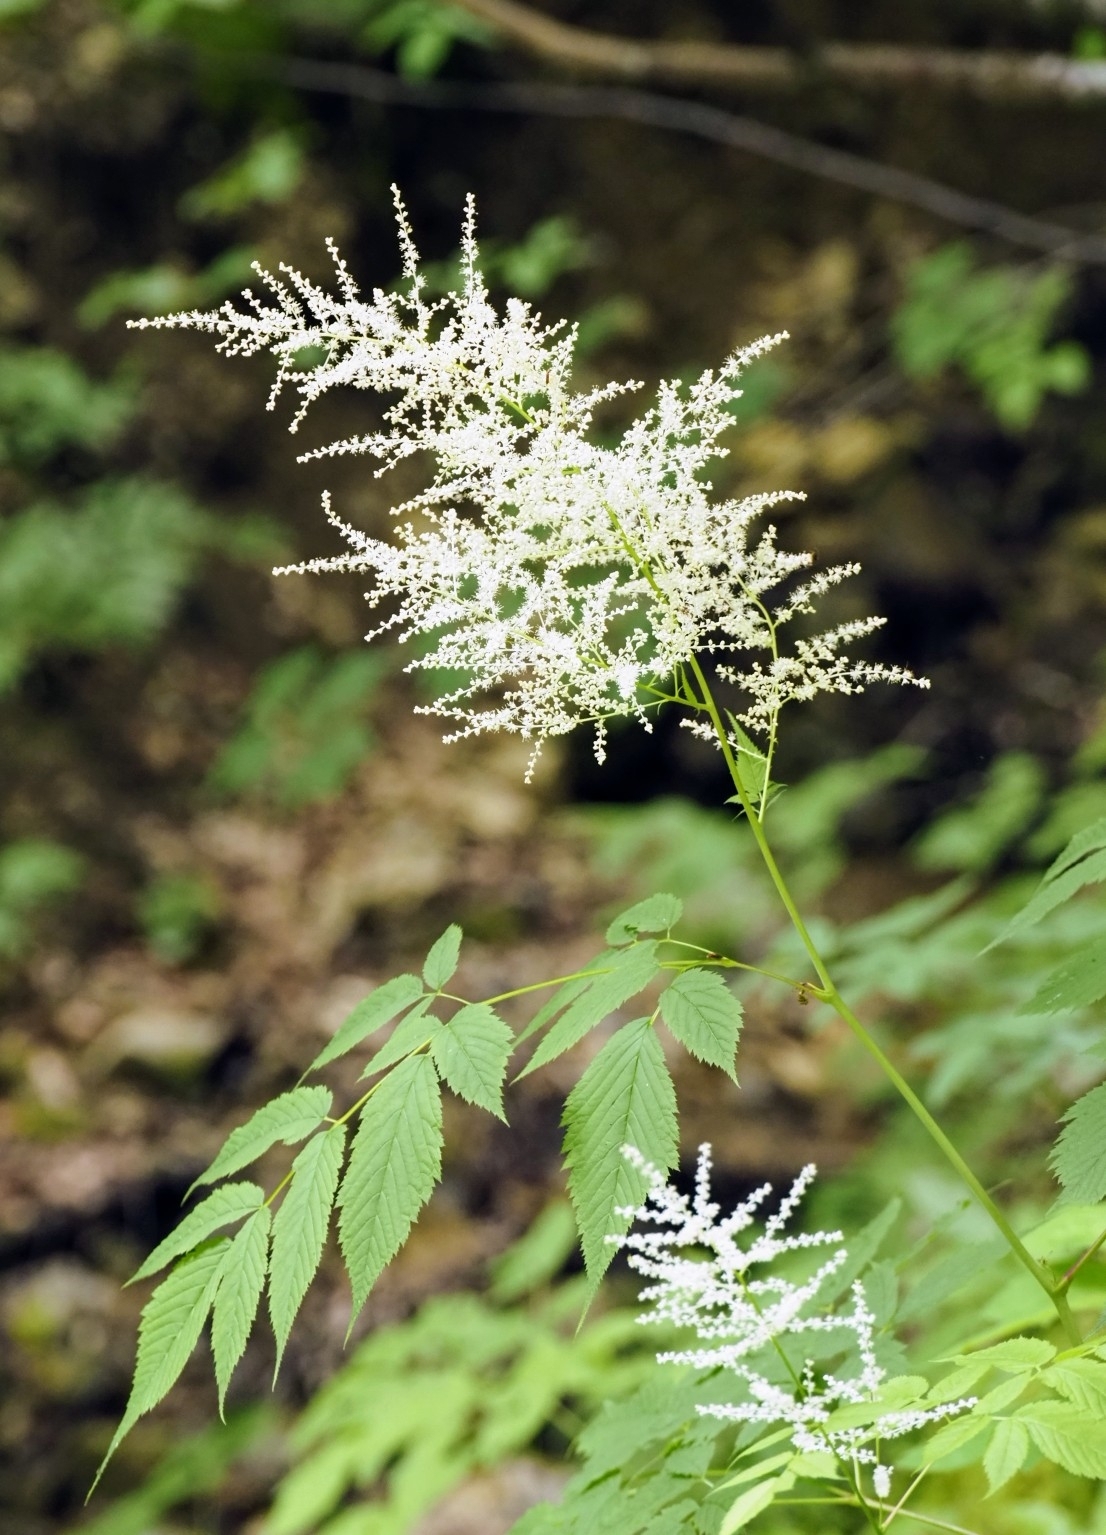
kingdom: Plantae
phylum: Tracheophyta
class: Magnoliopsida
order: Rosales
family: Rosaceae
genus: Aruncus
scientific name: Aruncus dioicus
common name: Buck's-beard
